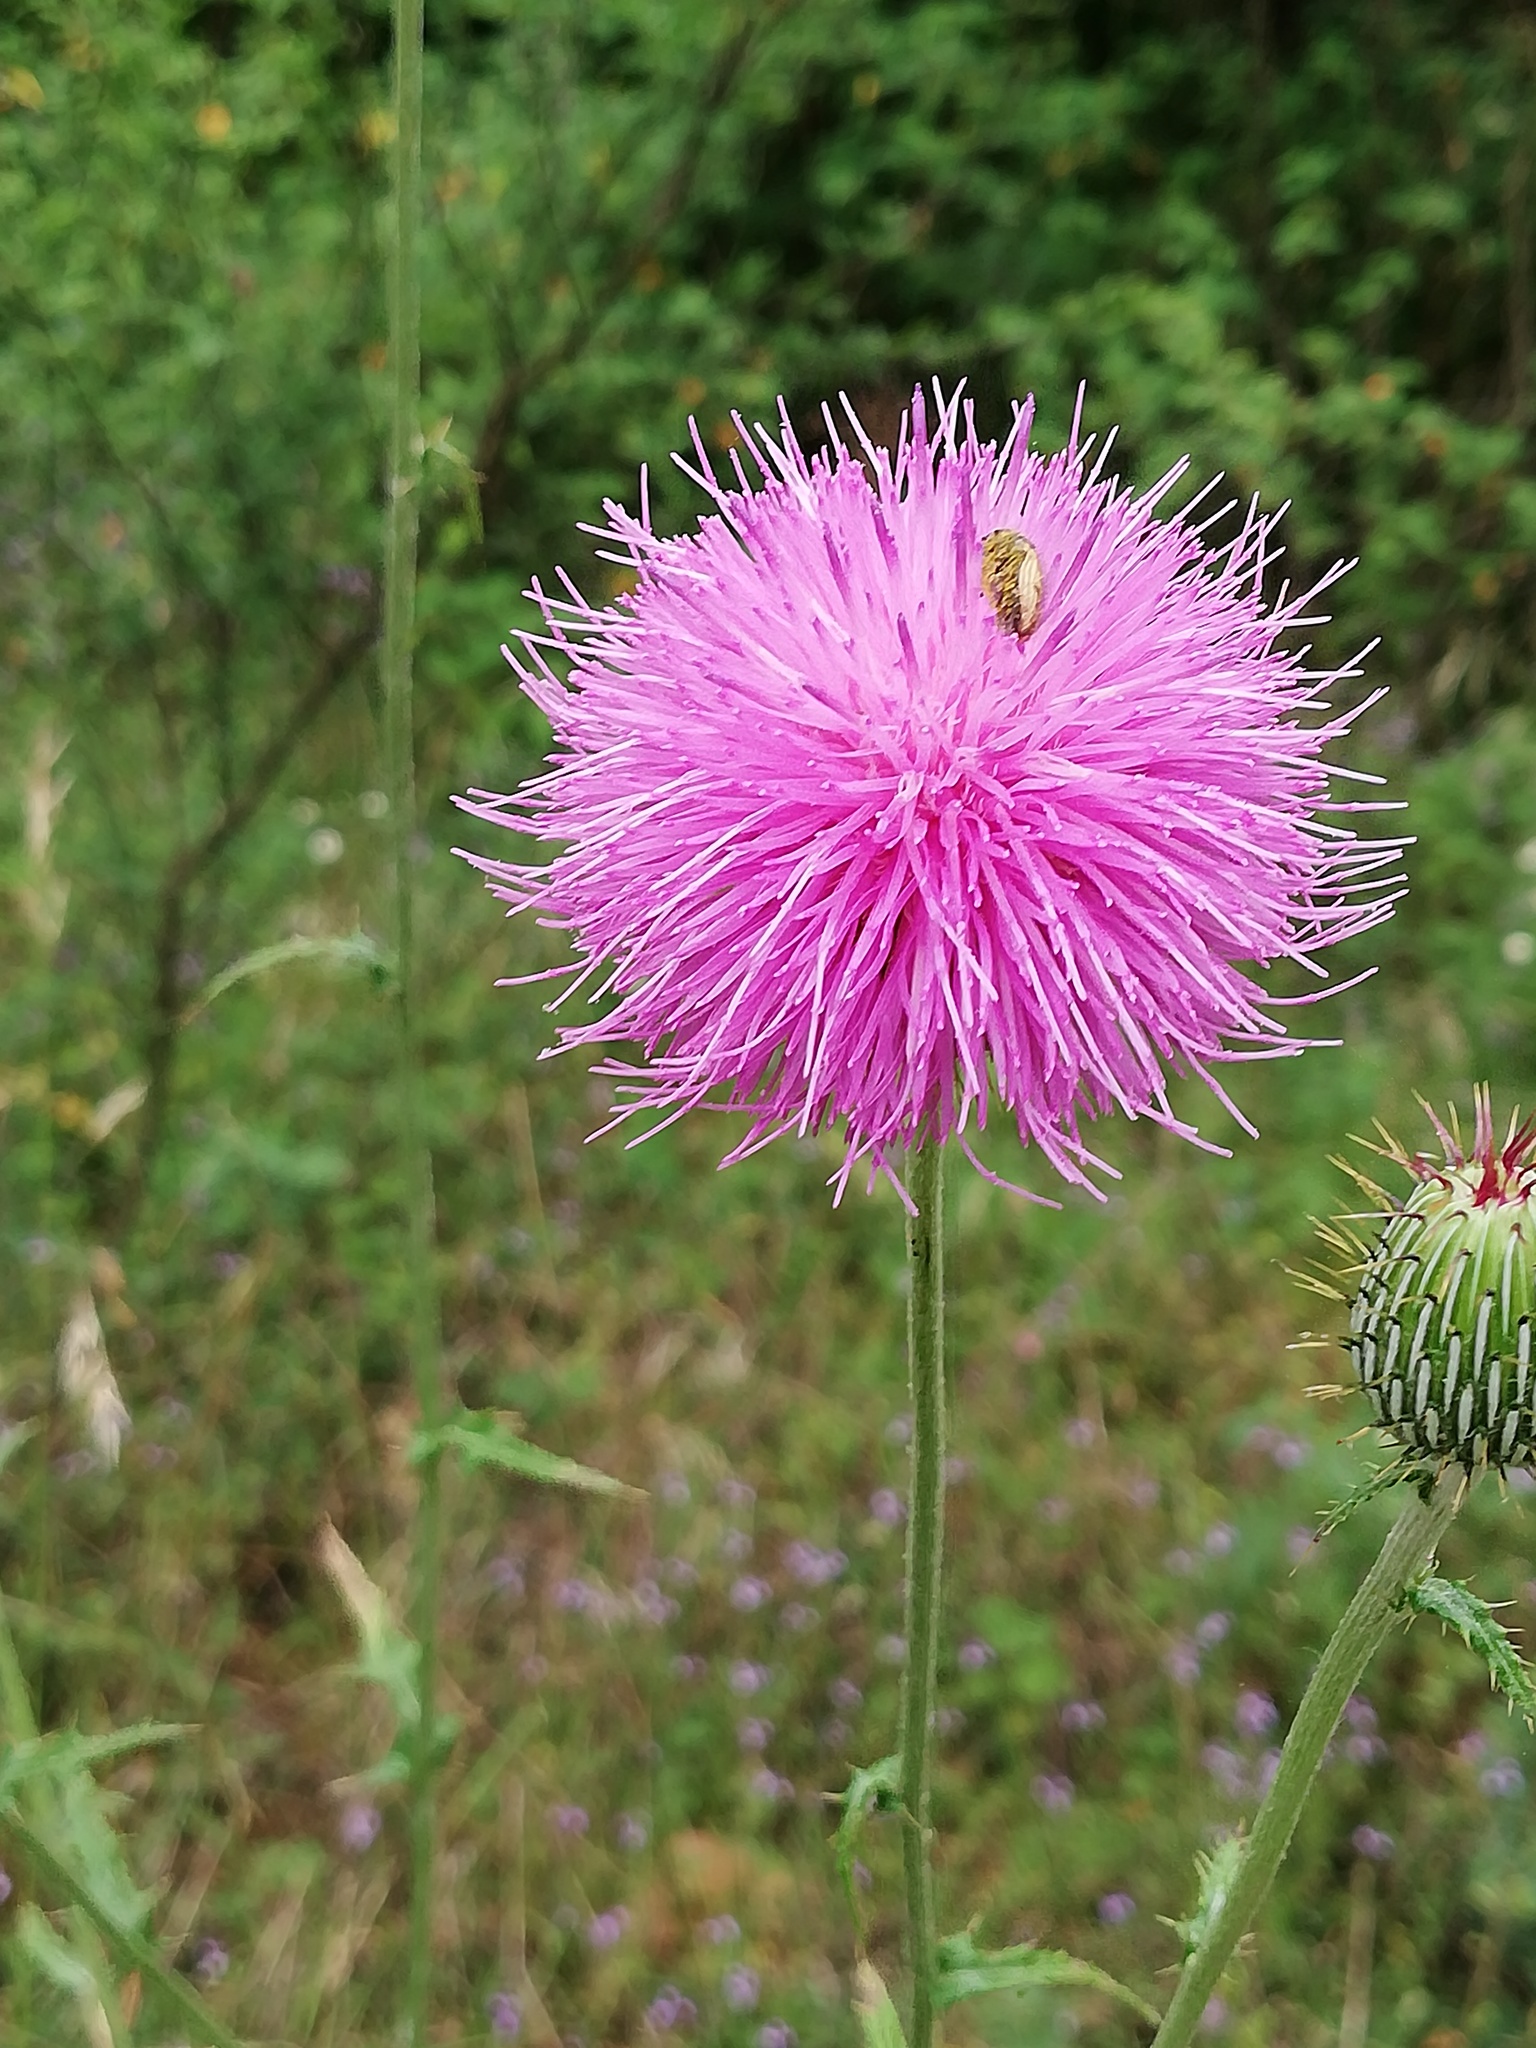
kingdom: Plantae
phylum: Tracheophyta
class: Magnoliopsida
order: Asterales
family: Asteraceae
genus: Cirsium
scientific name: Cirsium texanum
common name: Texas purple thistle
